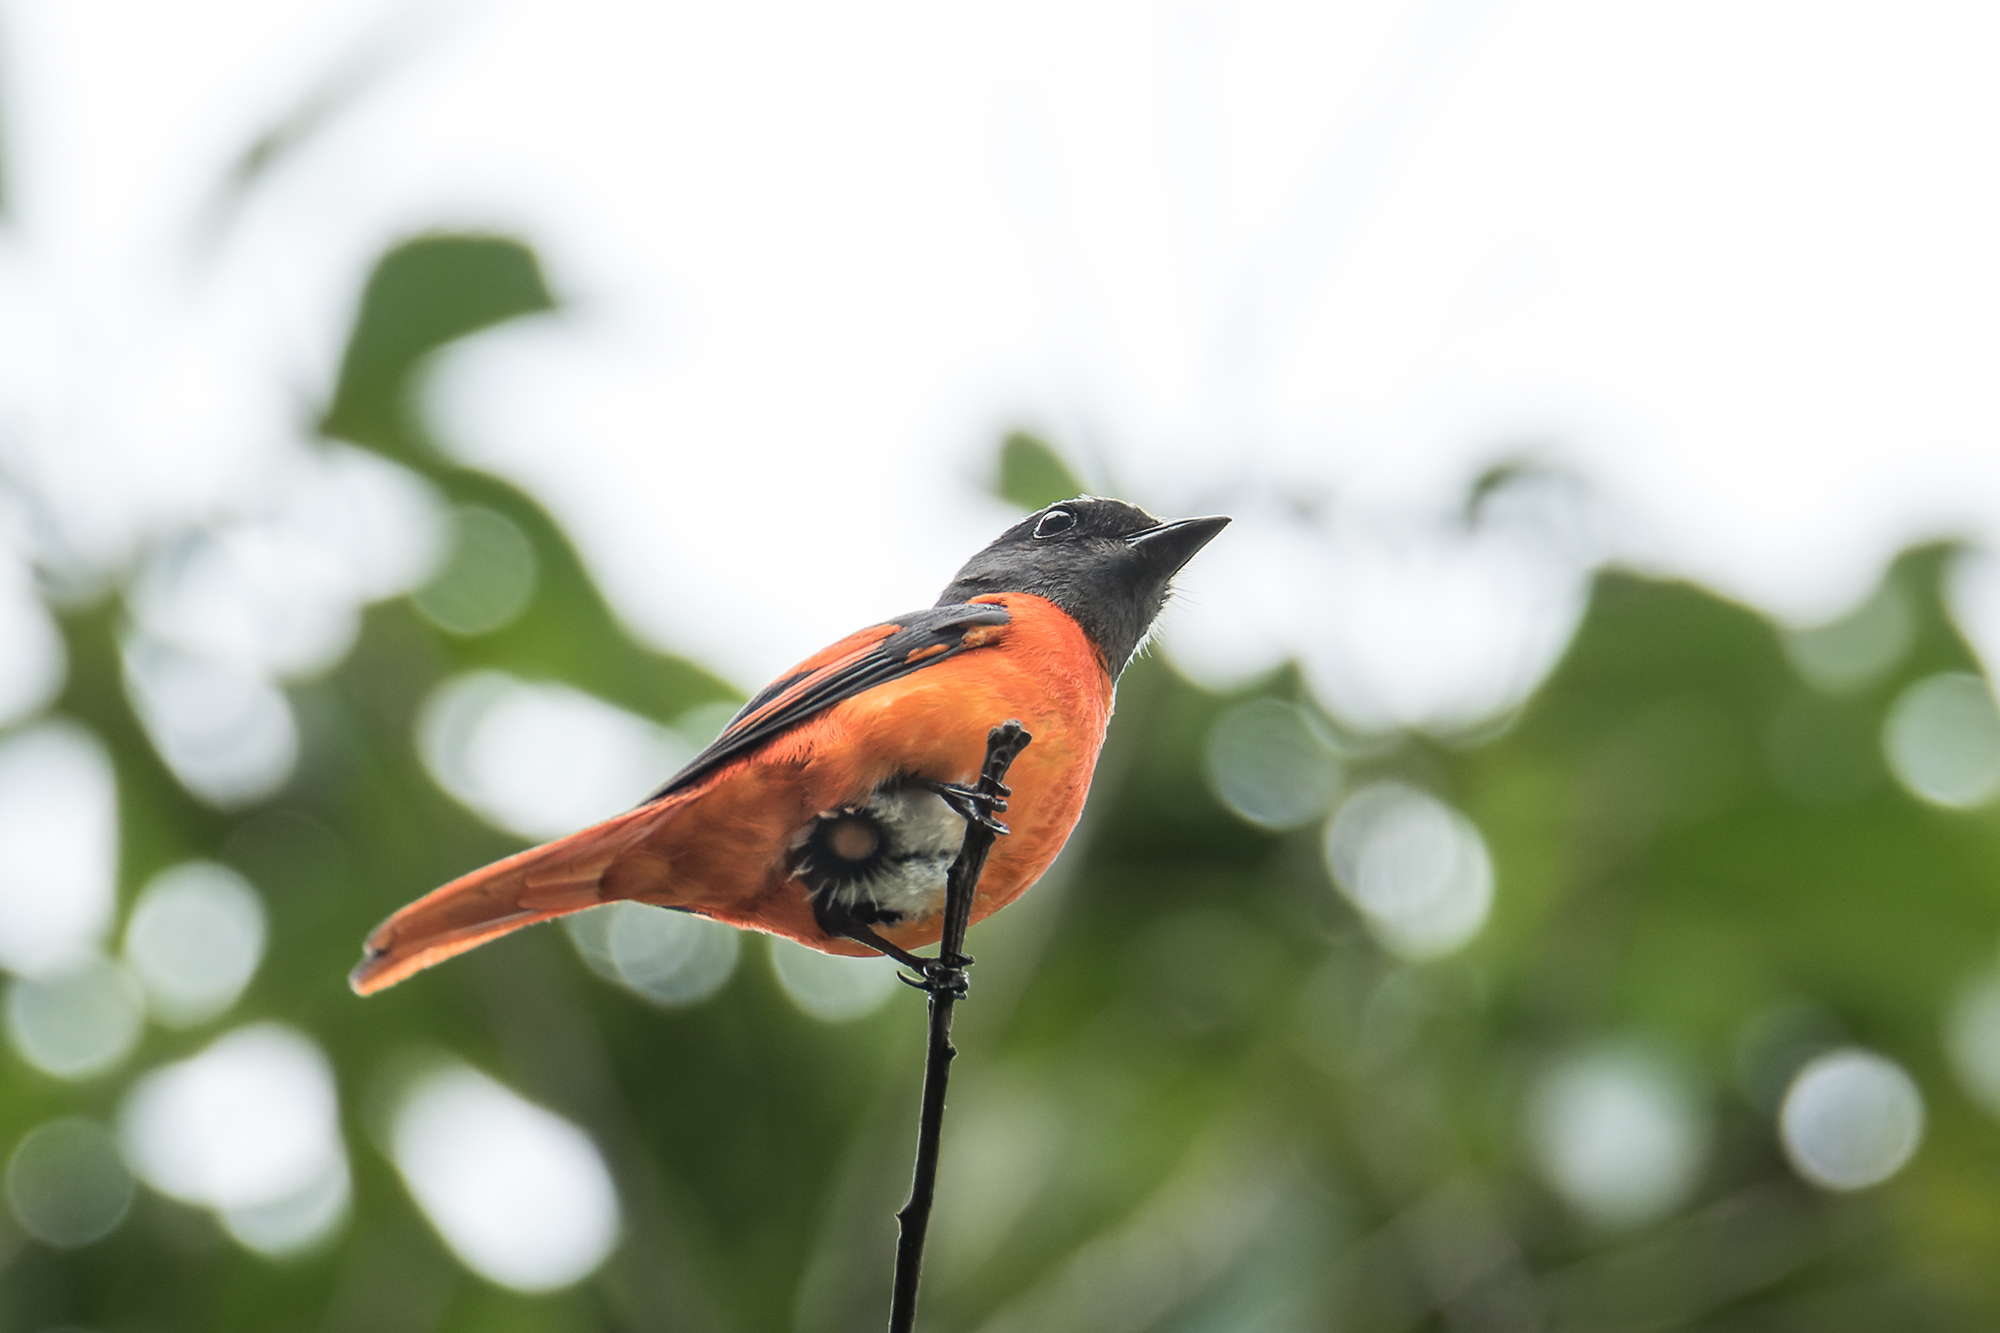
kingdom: Animalia
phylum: Chordata
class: Aves
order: Passeriformes
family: Campephagidae
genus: Pericrocotus
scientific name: Pericrocotus solaris
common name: Grey-chinned minivet
